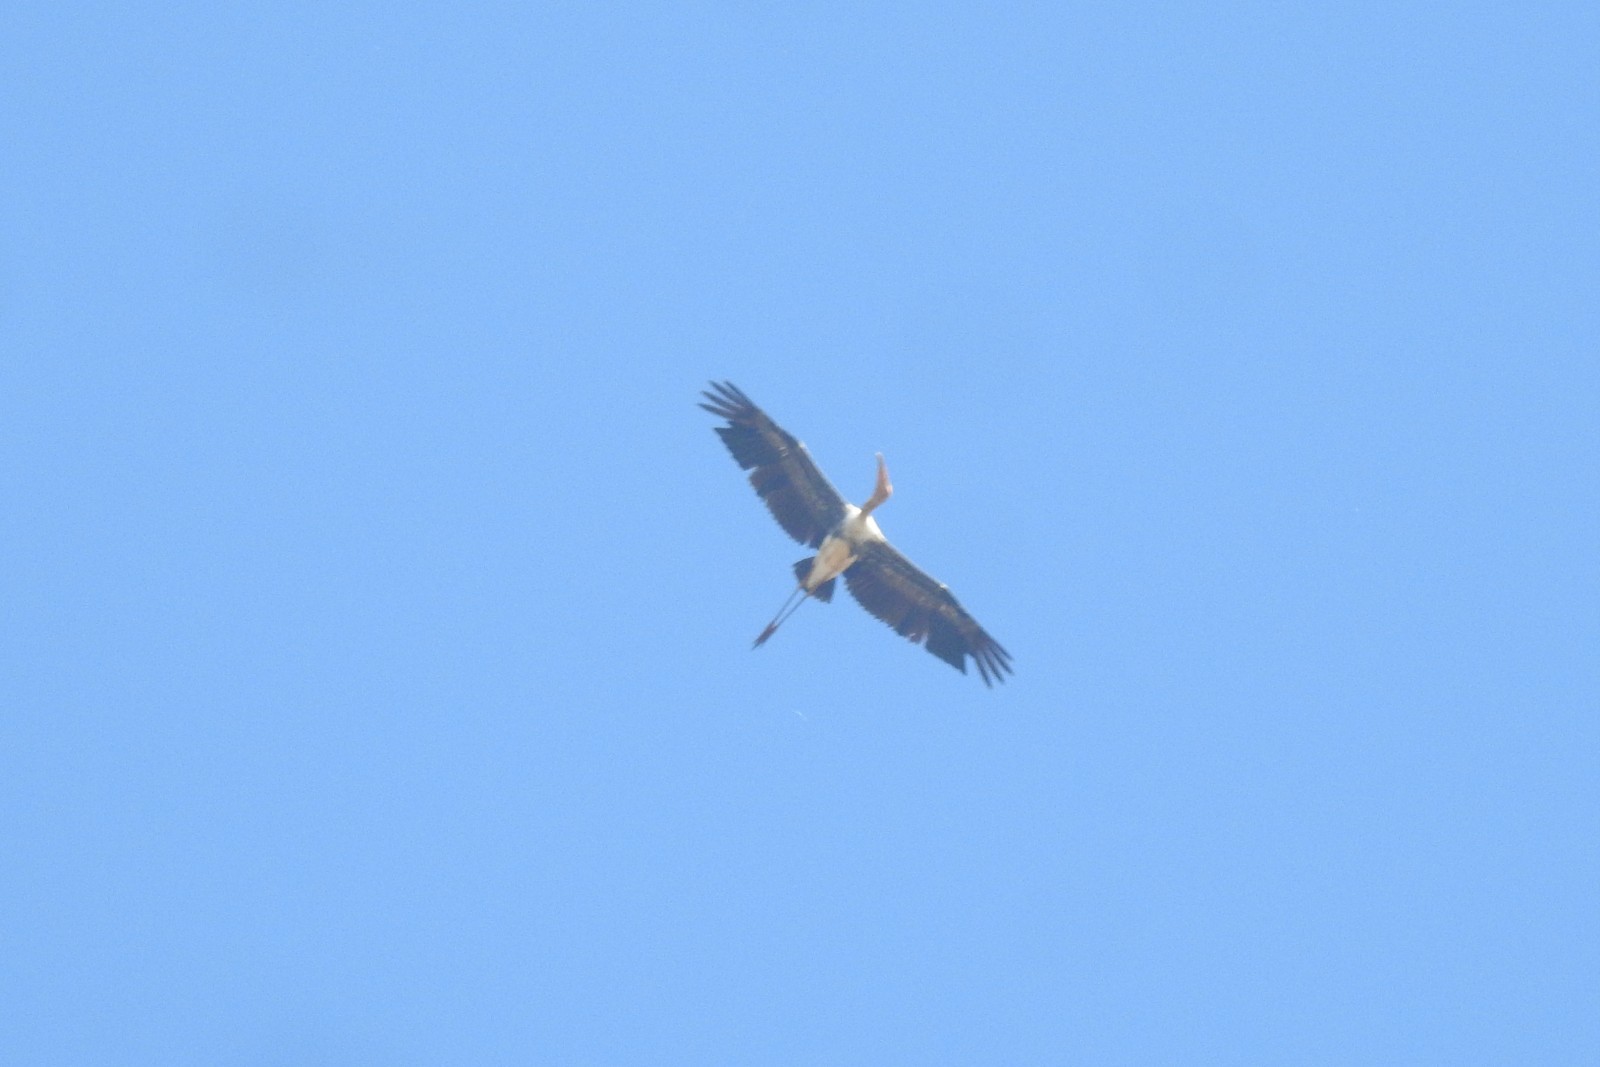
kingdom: Animalia
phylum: Chordata
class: Aves
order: Ciconiiformes
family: Ciconiidae
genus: Mycteria
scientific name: Mycteria leucocephala
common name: Painted stork
